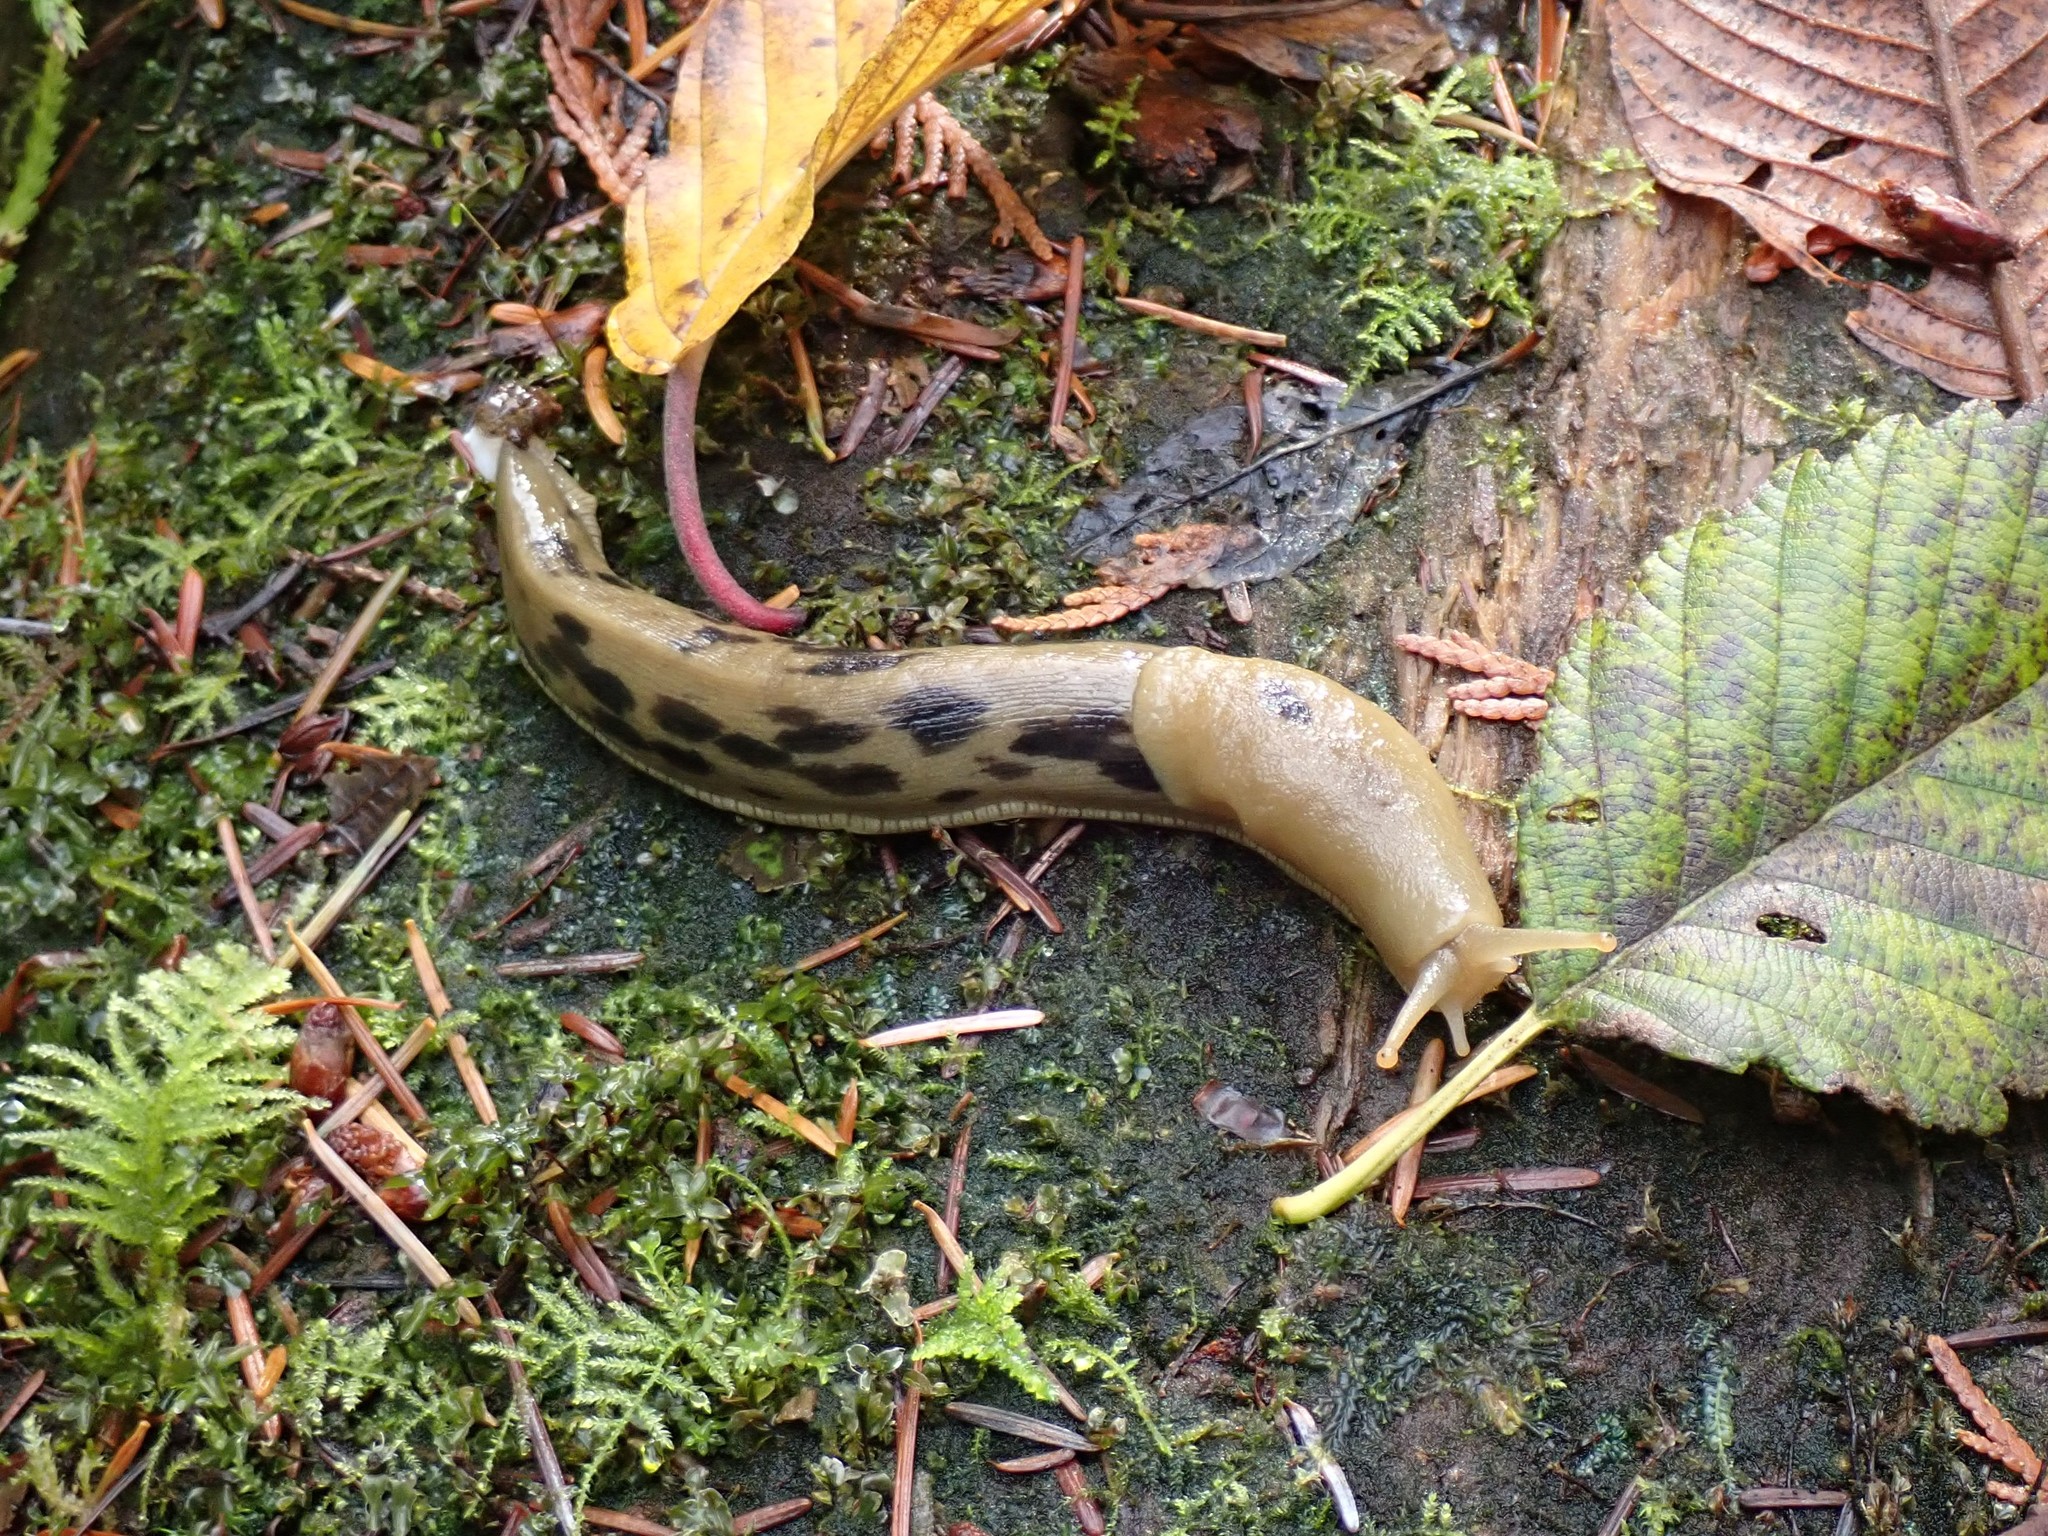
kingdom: Animalia
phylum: Mollusca
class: Gastropoda
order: Stylommatophora
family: Ariolimacidae
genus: Ariolimax
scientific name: Ariolimax columbianus
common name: Pacific banana slug
